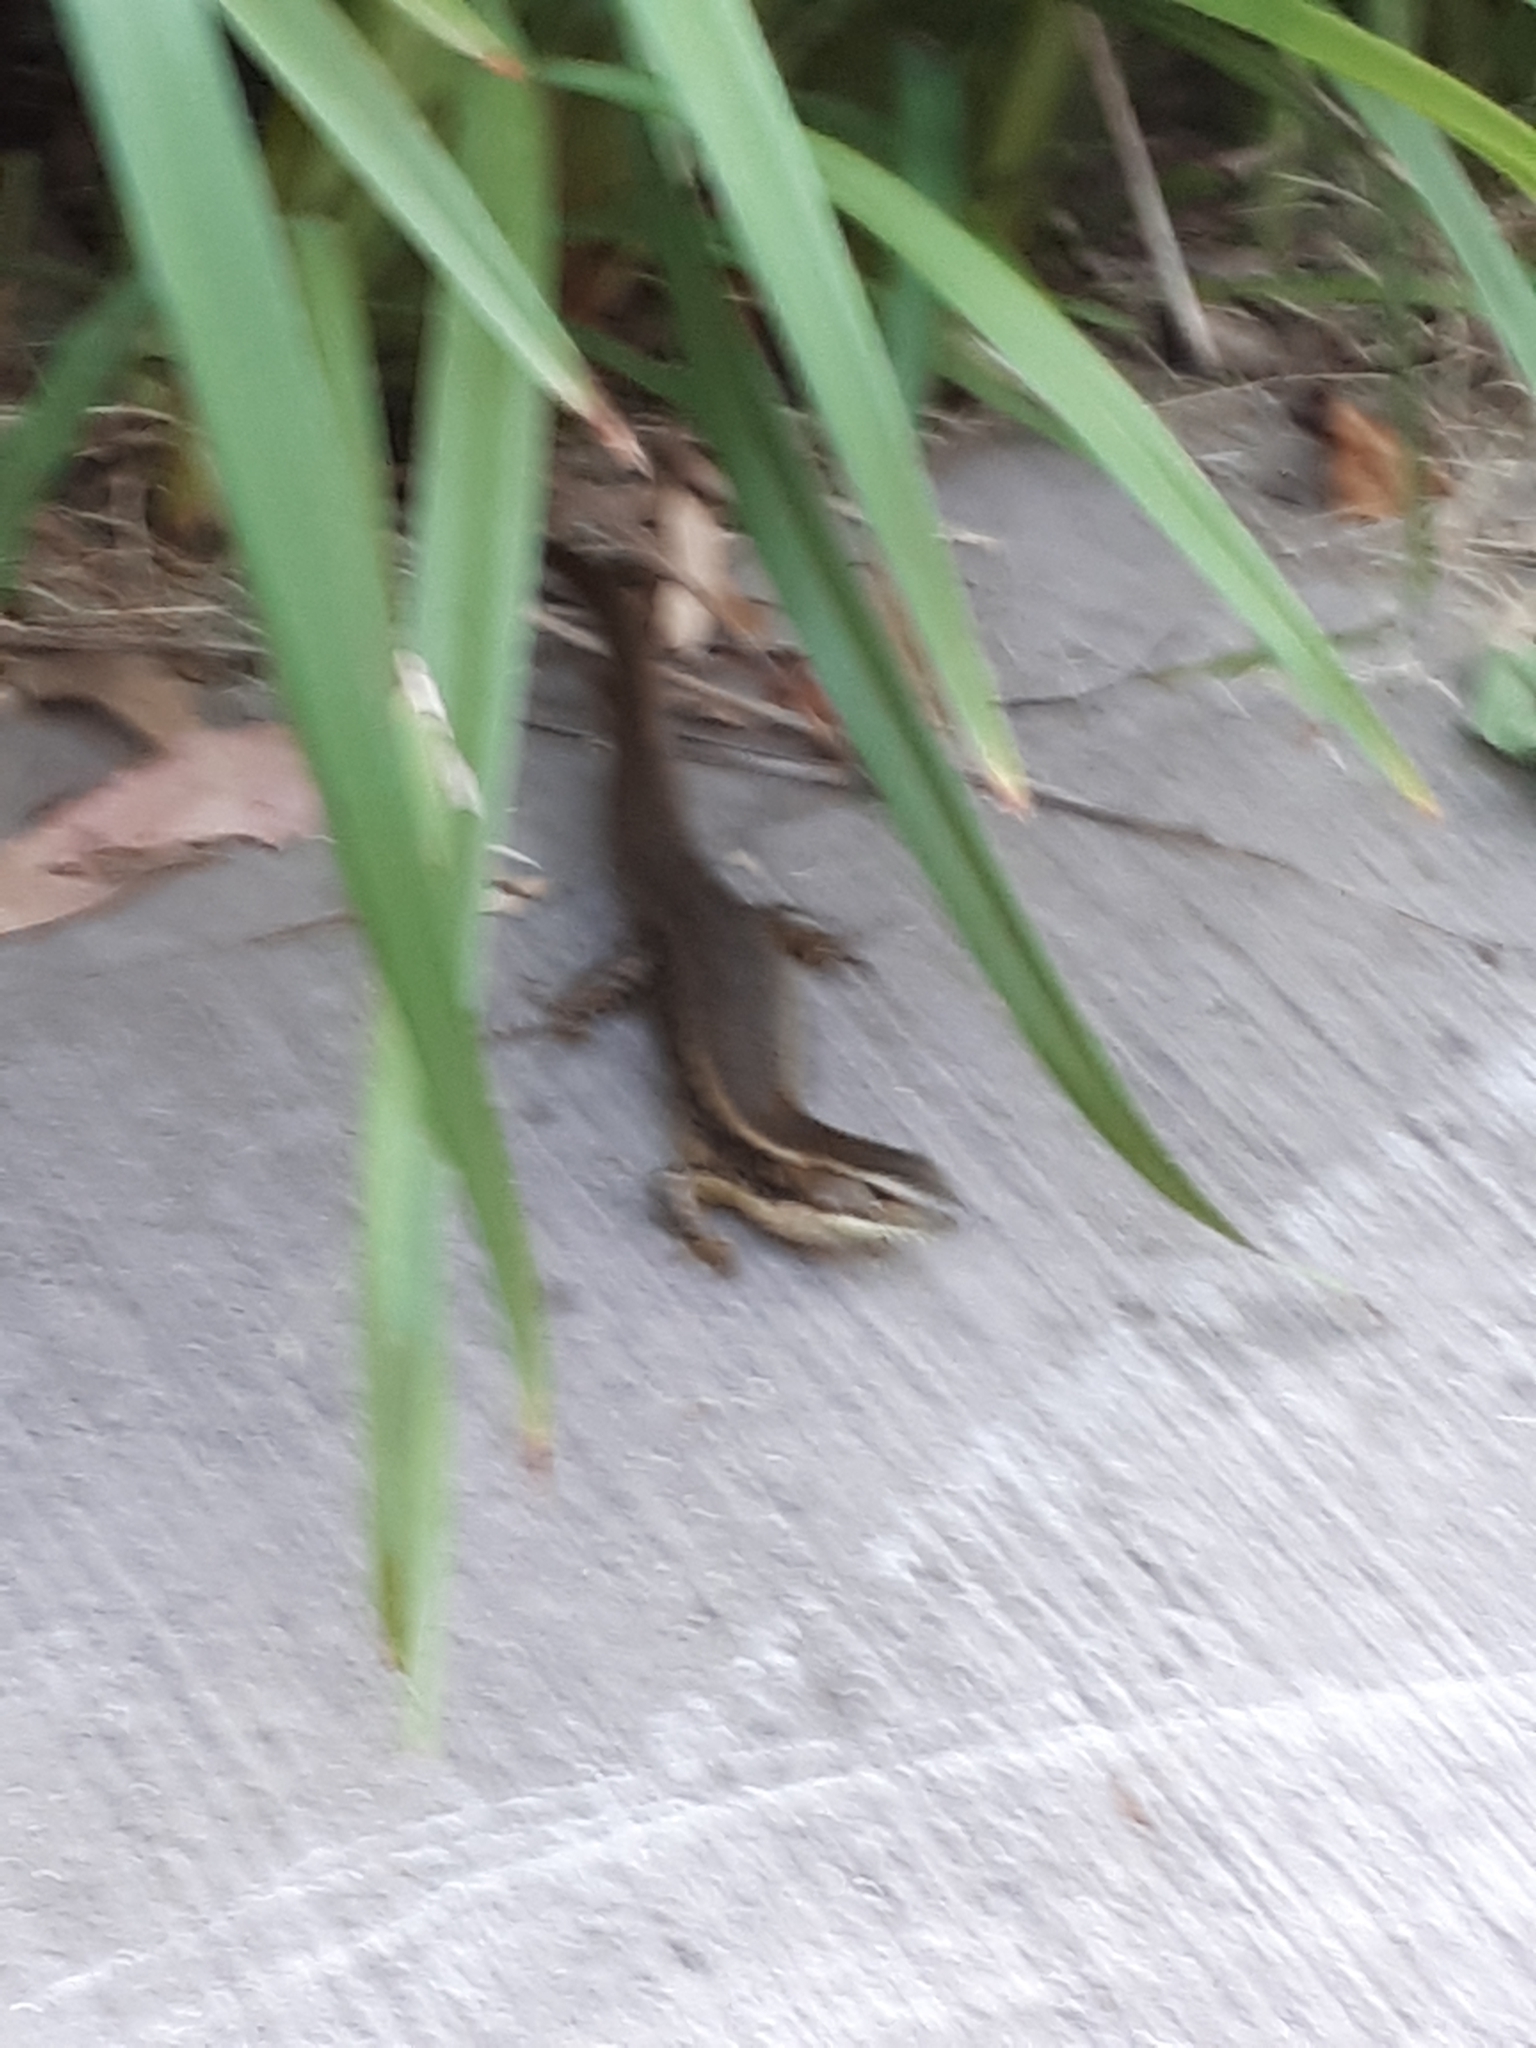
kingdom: Animalia
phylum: Chordata
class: Squamata
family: Scincidae
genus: Eulamprus
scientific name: Eulamprus quoyii
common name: Eastern water skink
